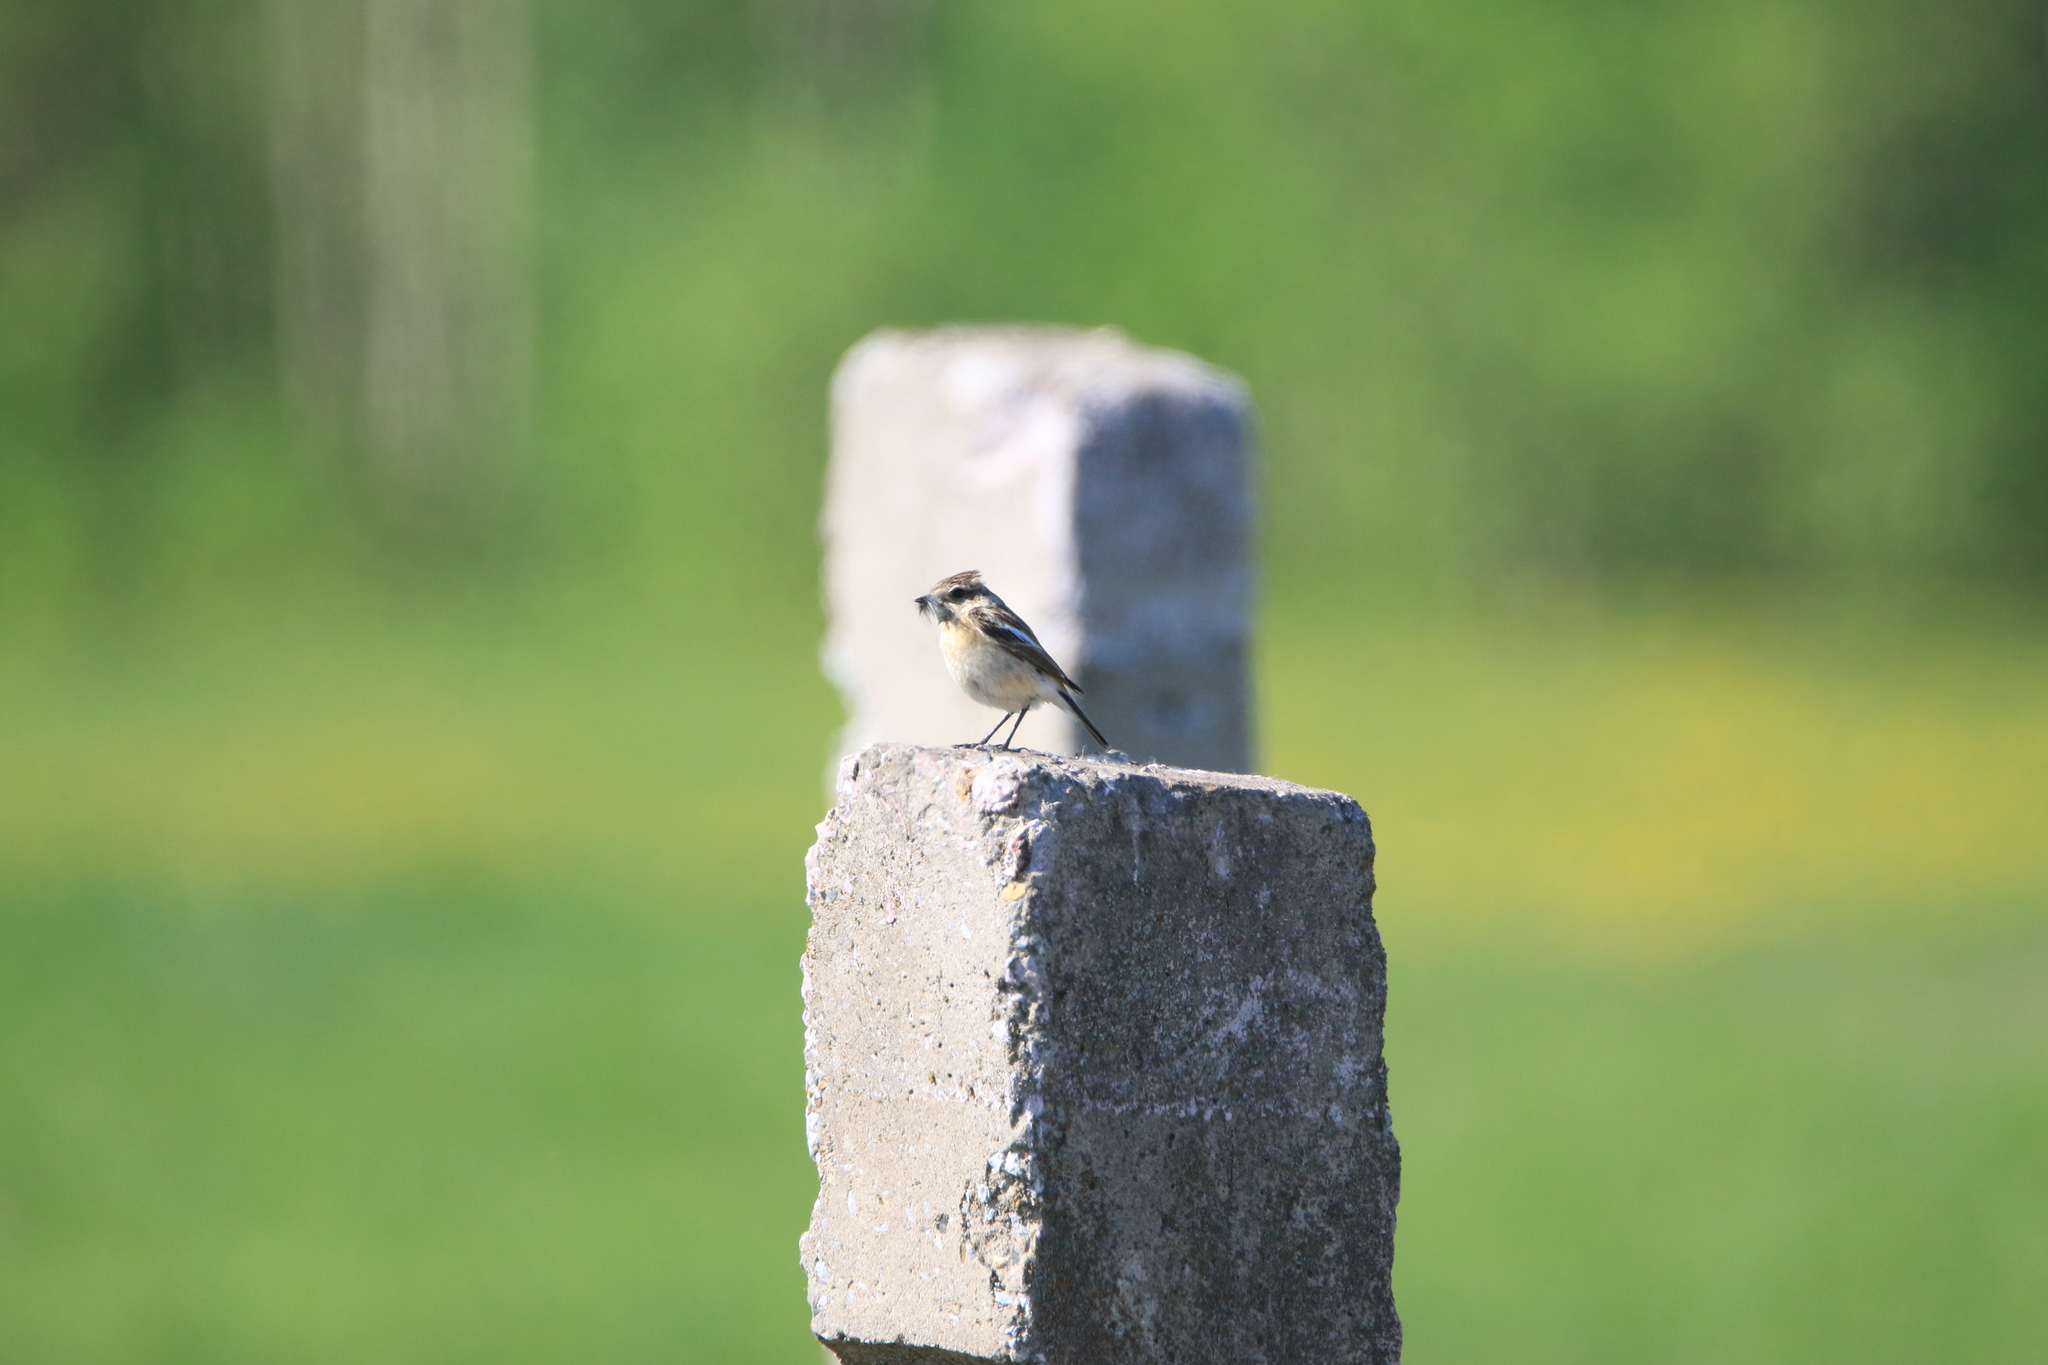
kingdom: Animalia
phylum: Chordata
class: Aves
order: Passeriformes
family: Muscicapidae
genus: Saxicola
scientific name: Saxicola maurus
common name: Siberian stonechat
